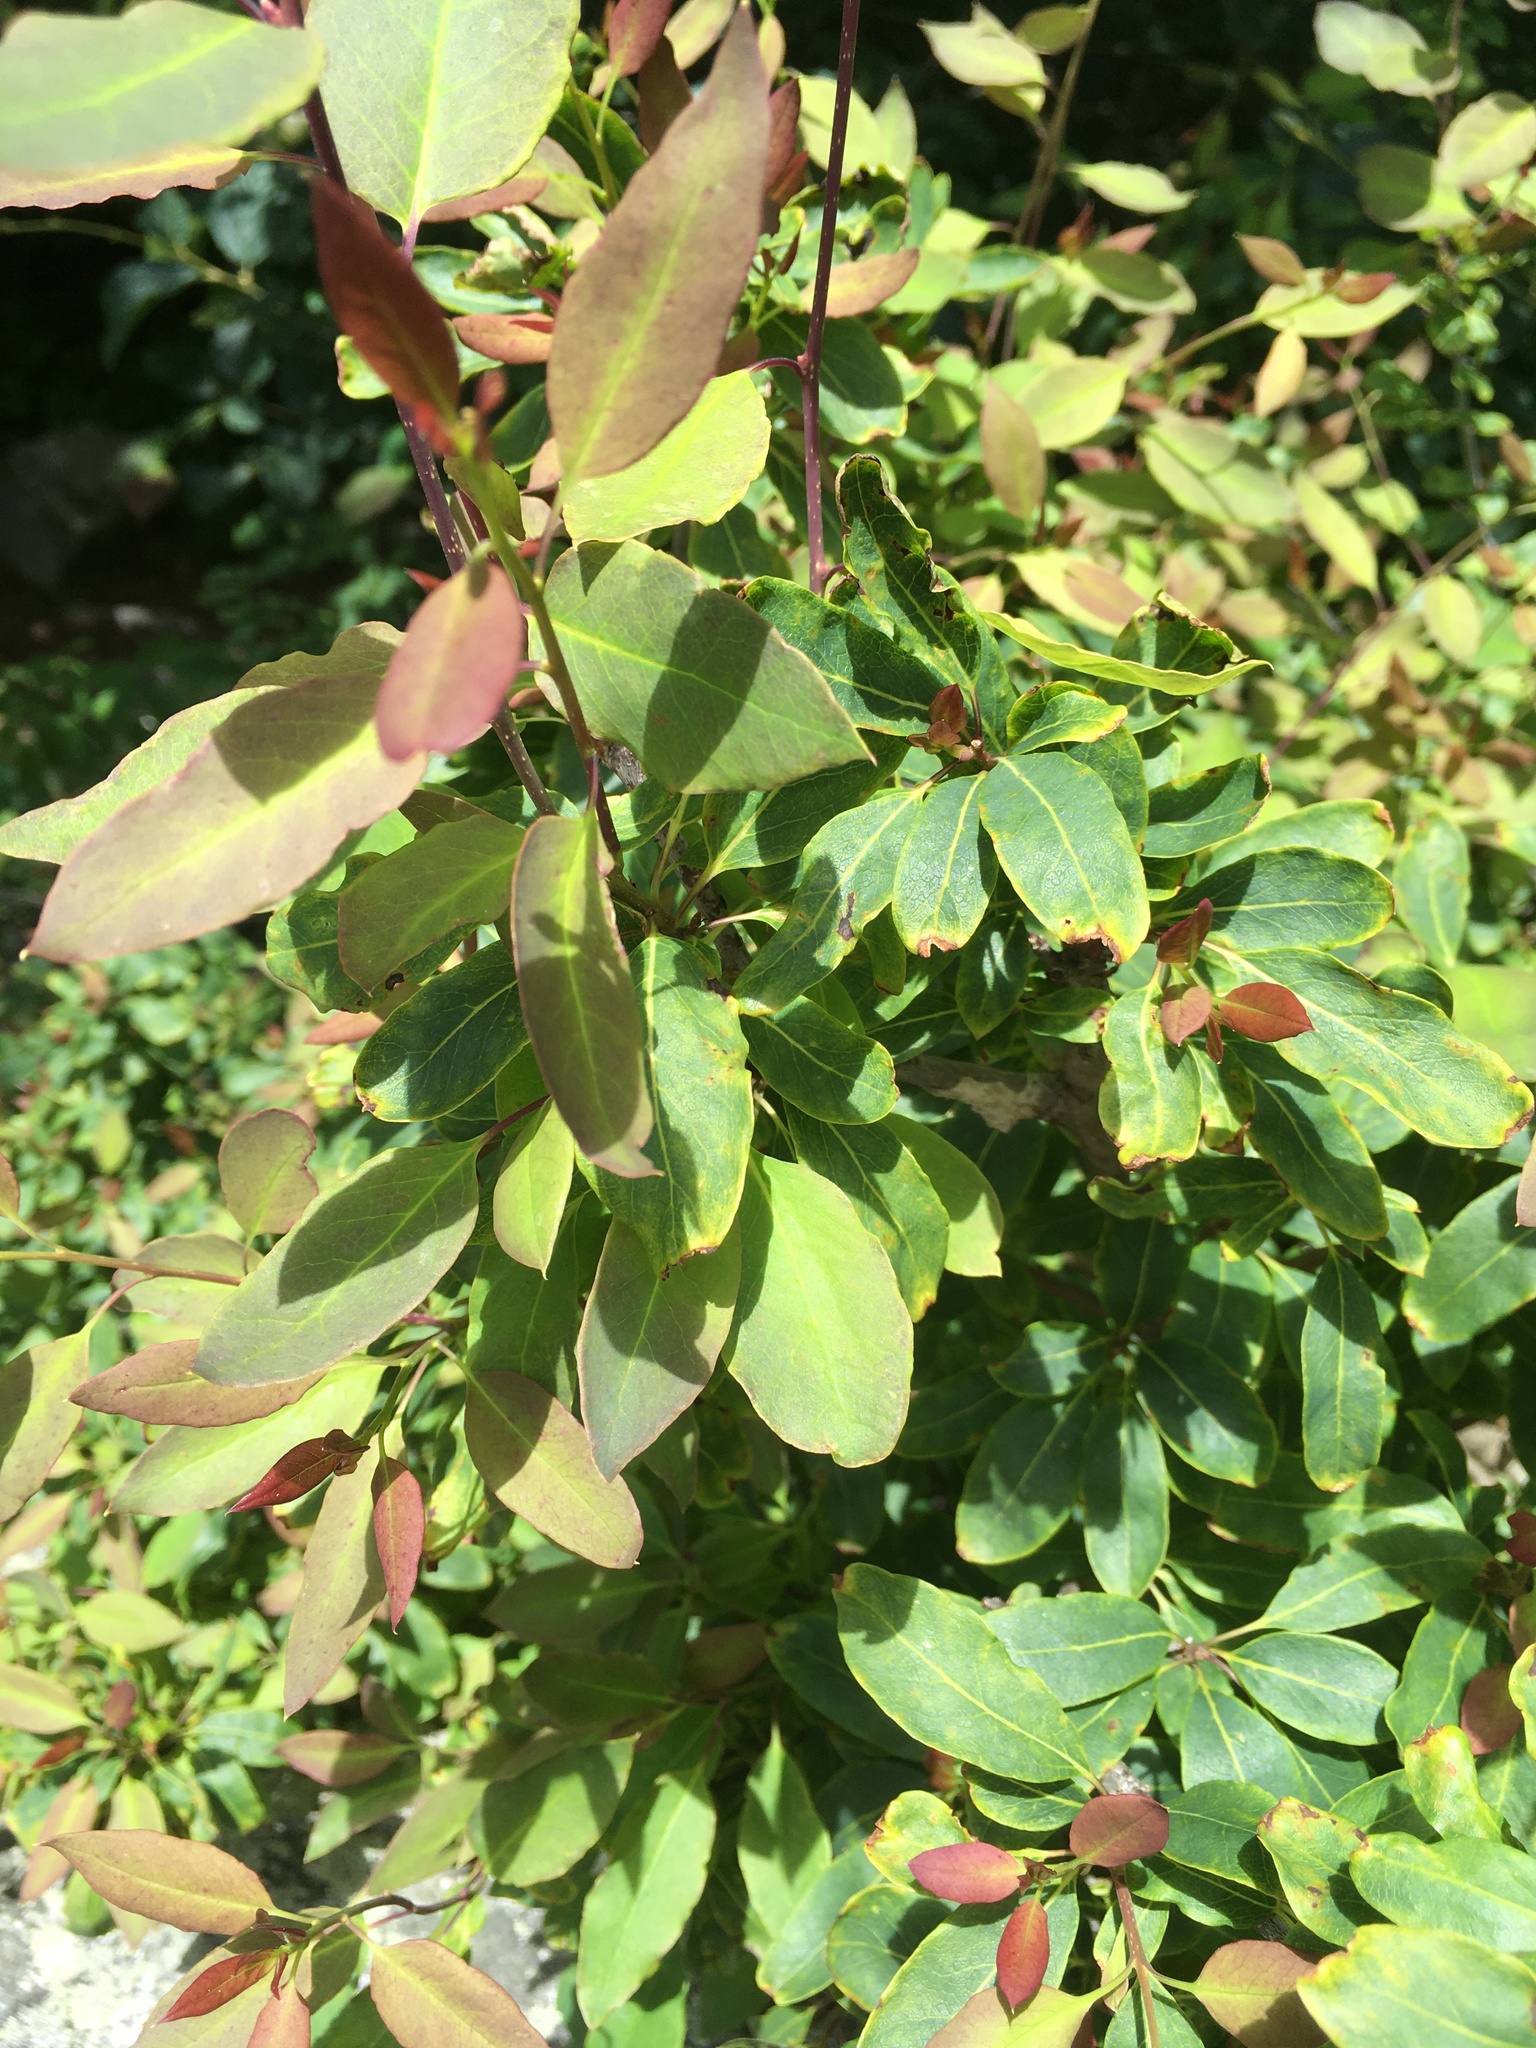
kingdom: Plantae
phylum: Tracheophyta
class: Magnoliopsida
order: Aquifoliales
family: Aquifoliaceae
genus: Ilex
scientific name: Ilex mucronata
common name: Catberry
